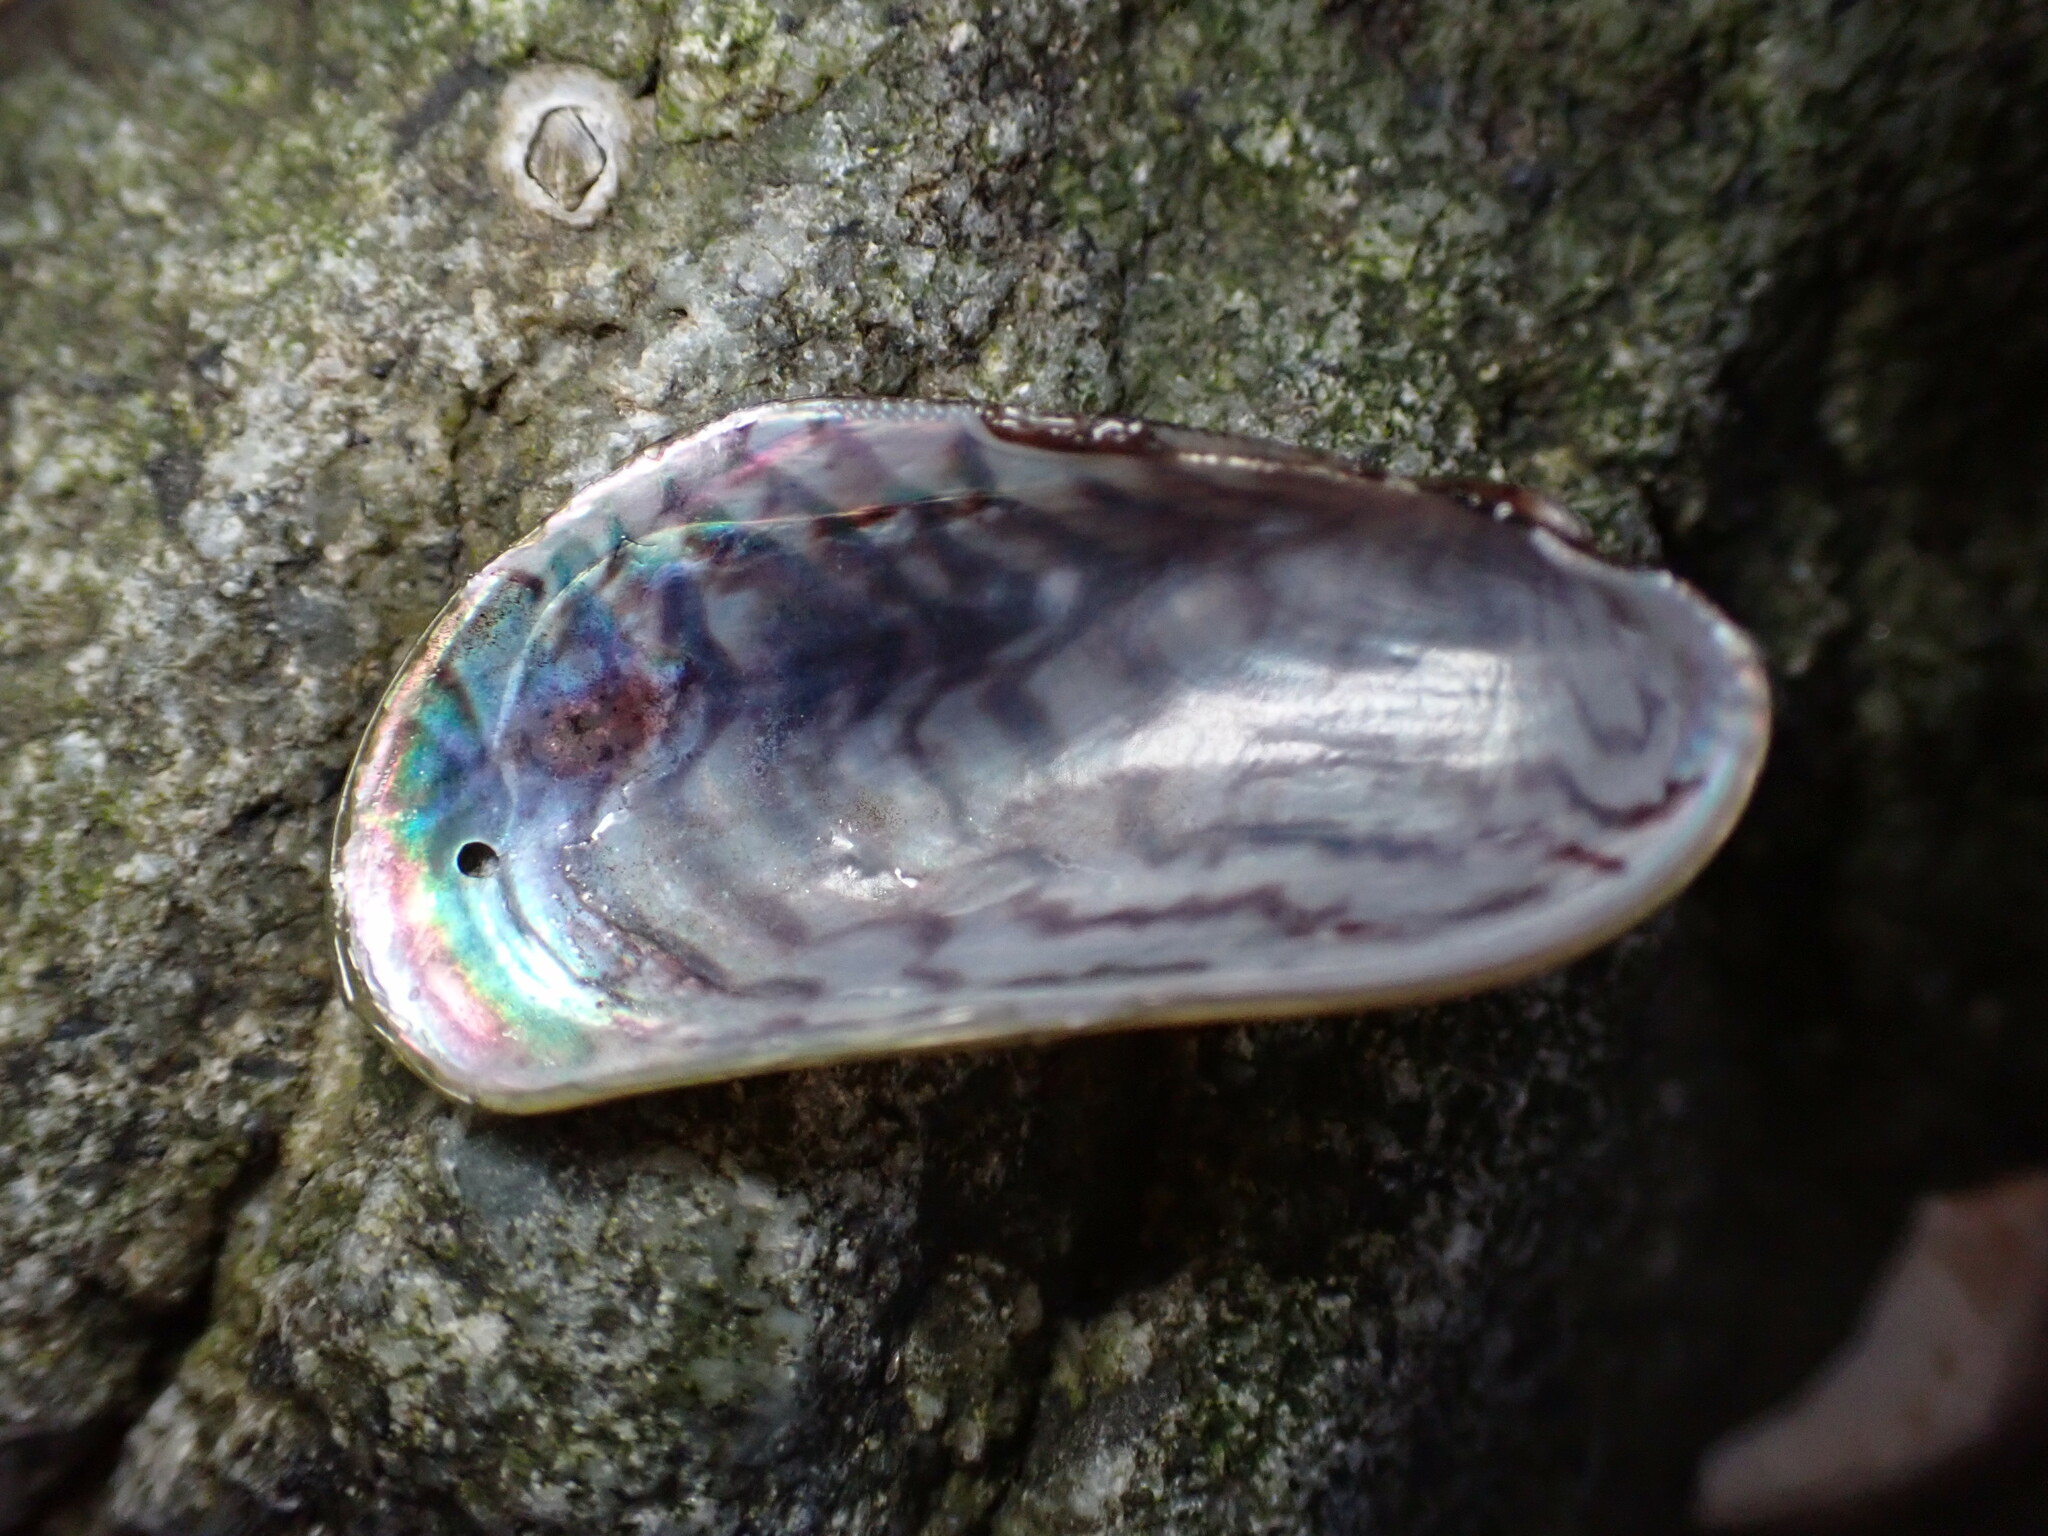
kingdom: Animalia
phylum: Mollusca
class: Bivalvia
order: Mytilida
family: Mytilidae
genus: Arcuatula
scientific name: Arcuatula senhousia
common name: Asian mussel
